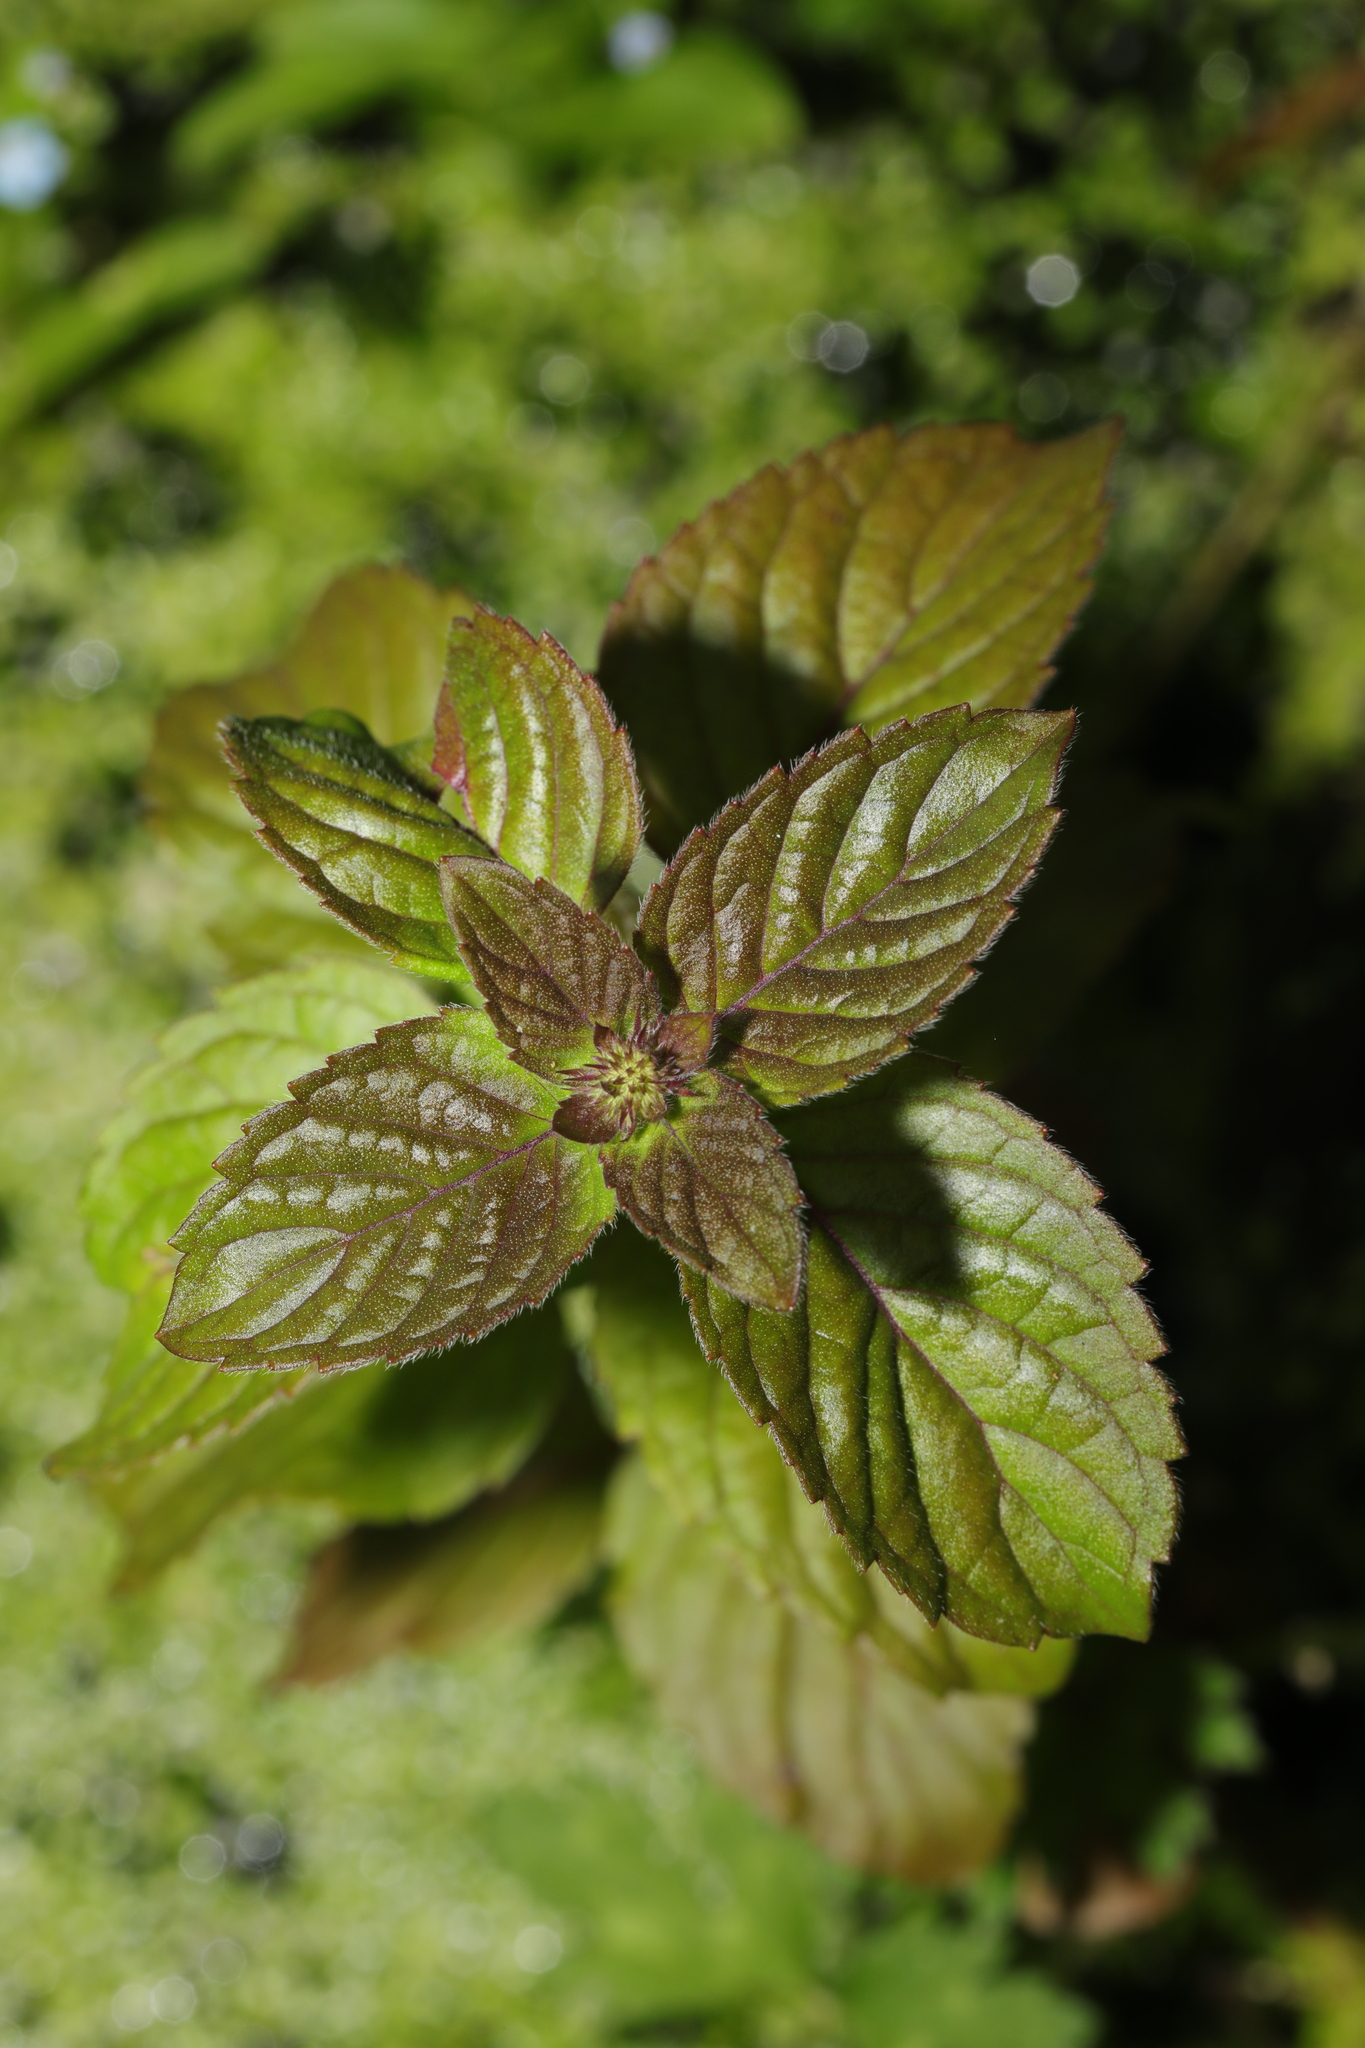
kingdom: Plantae
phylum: Tracheophyta
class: Magnoliopsida
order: Lamiales
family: Lamiaceae
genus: Mentha
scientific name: Mentha aquatica
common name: Water mint
